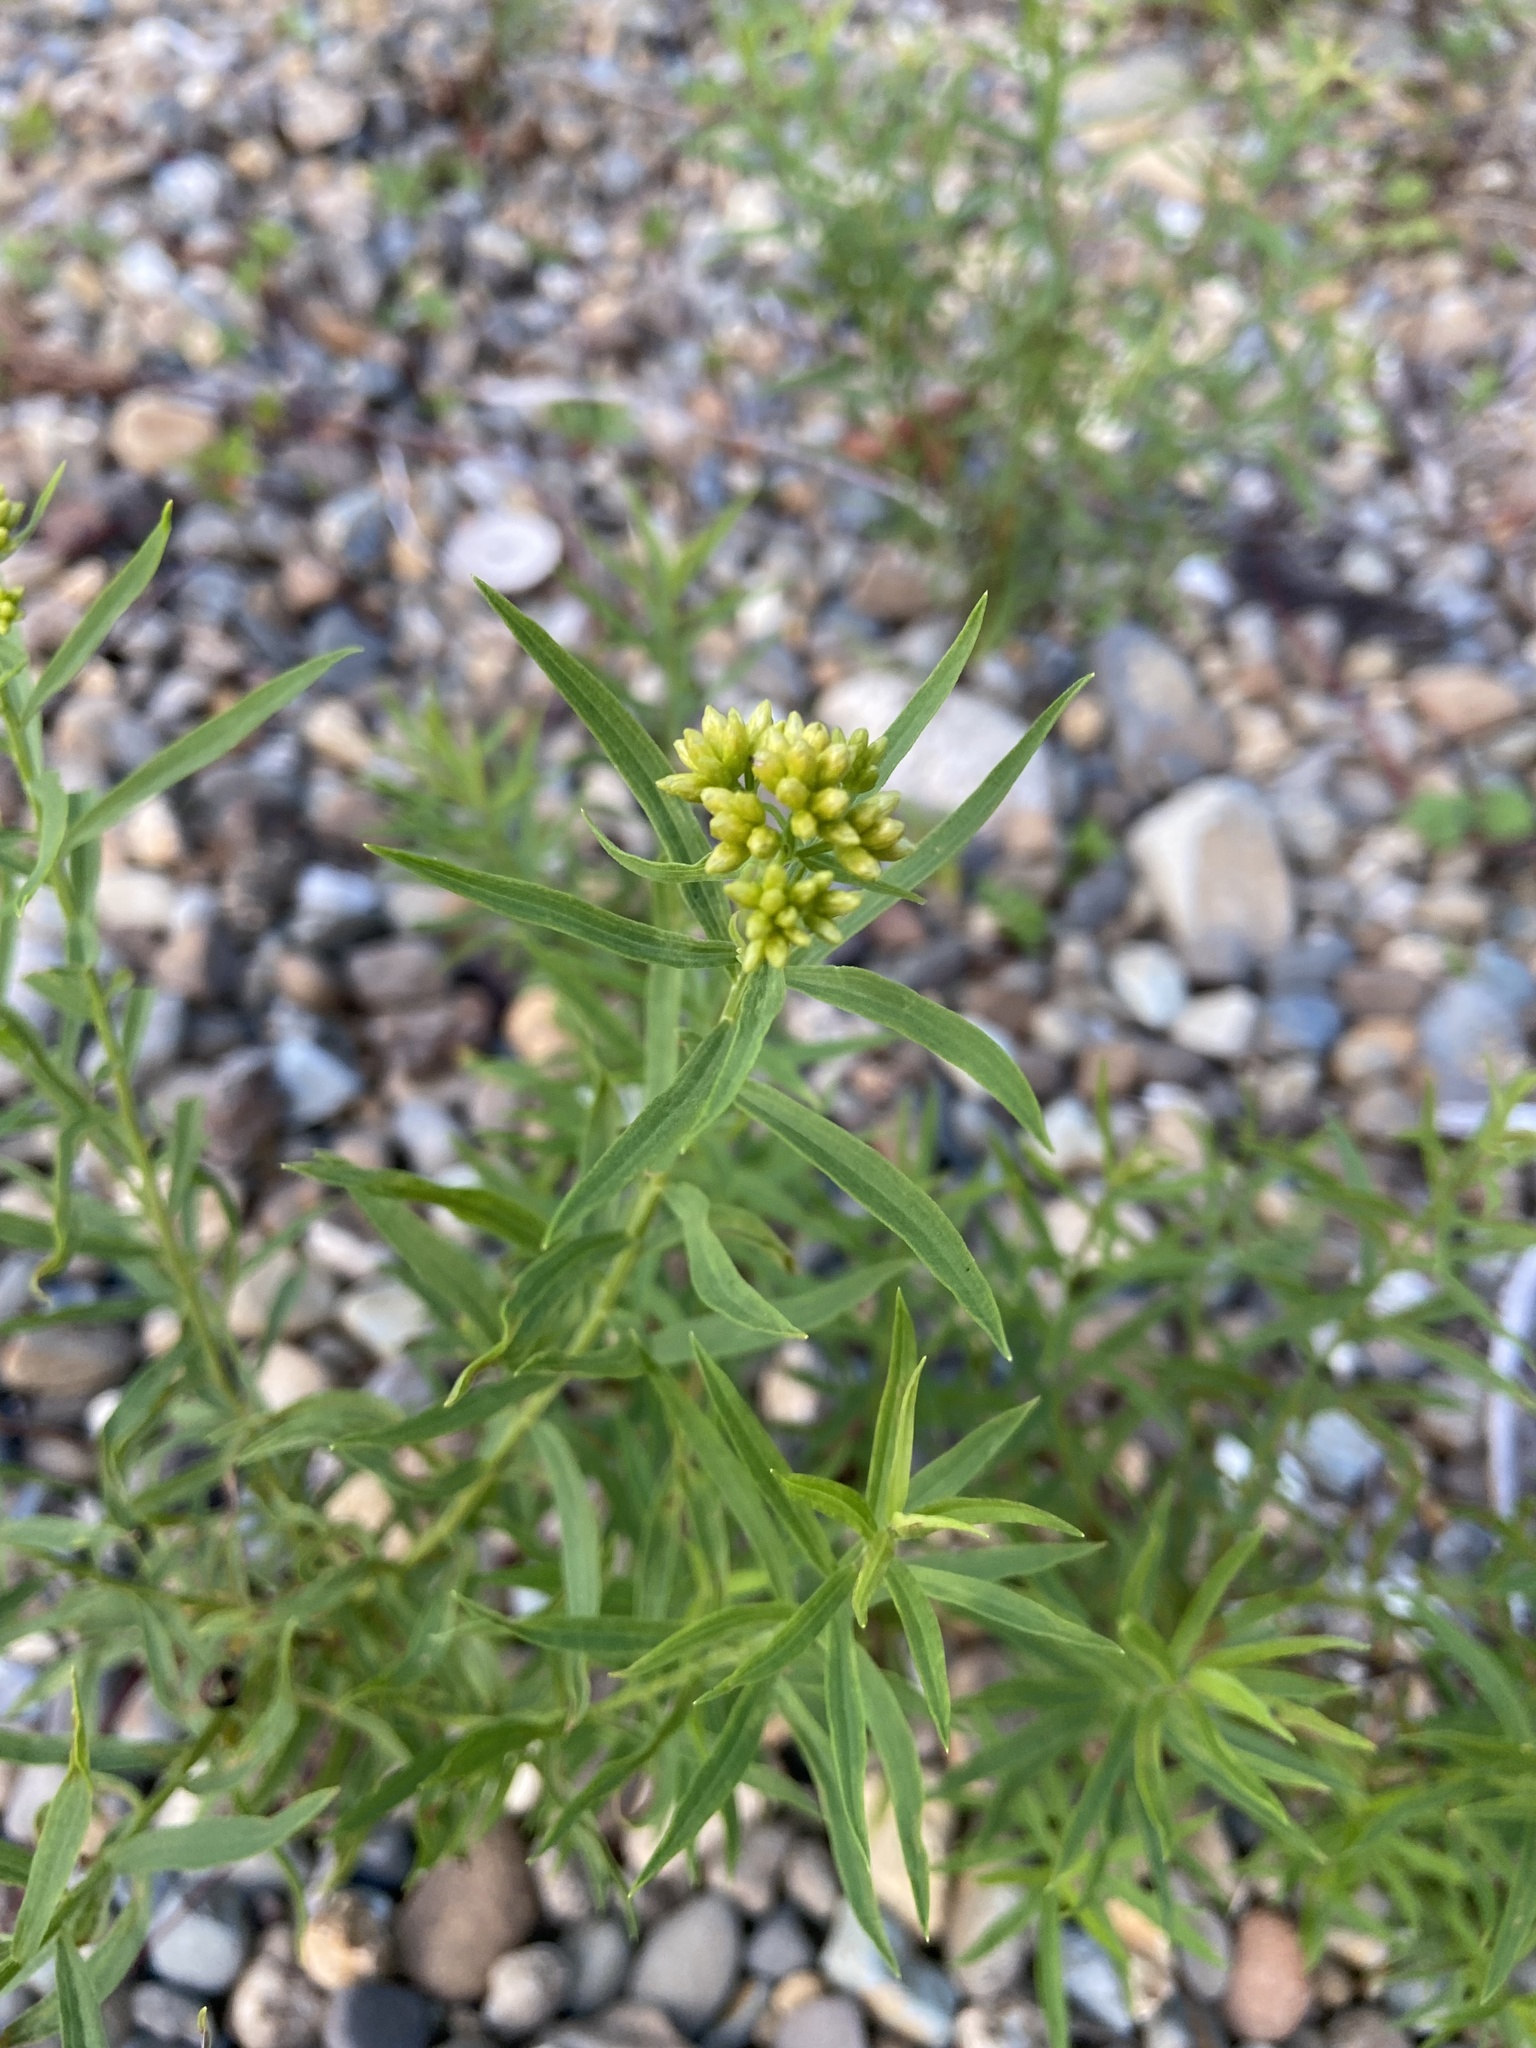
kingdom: Plantae
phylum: Tracheophyta
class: Magnoliopsida
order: Asterales
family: Asteraceae
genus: Euthamia
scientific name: Euthamia graminifolia
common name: Common goldentop
